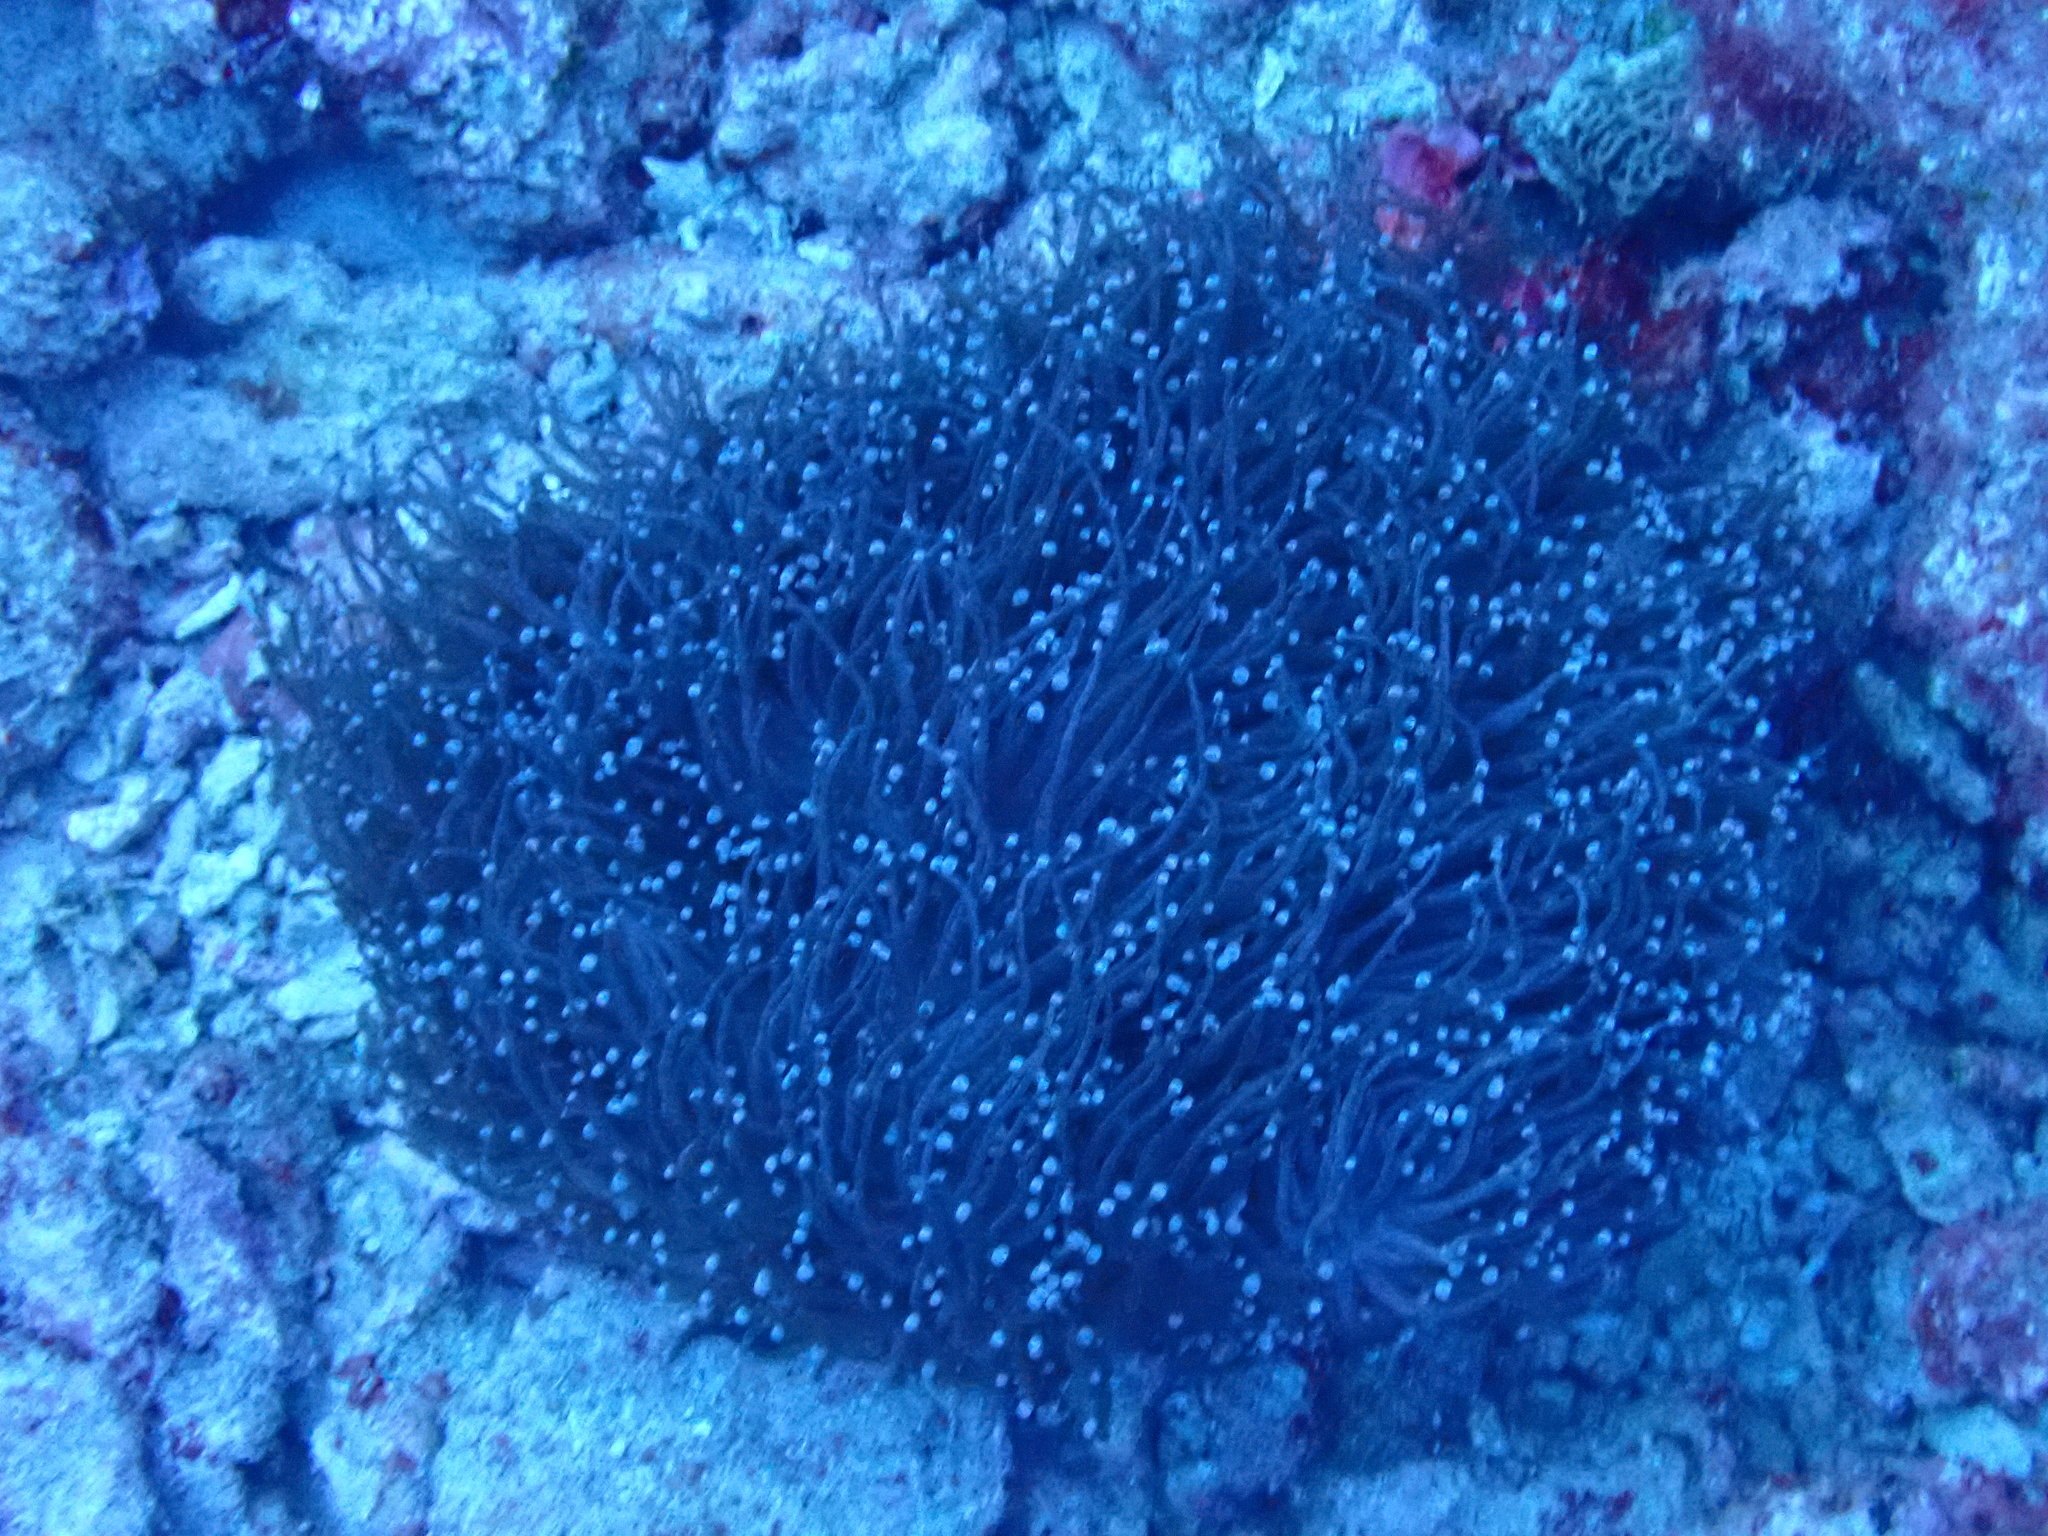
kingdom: Animalia
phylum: Cnidaria
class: Anthozoa
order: Scleractinia
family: Euphylliidae
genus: Euphyllia
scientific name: Euphyllia glabrescens
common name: Joker coral
